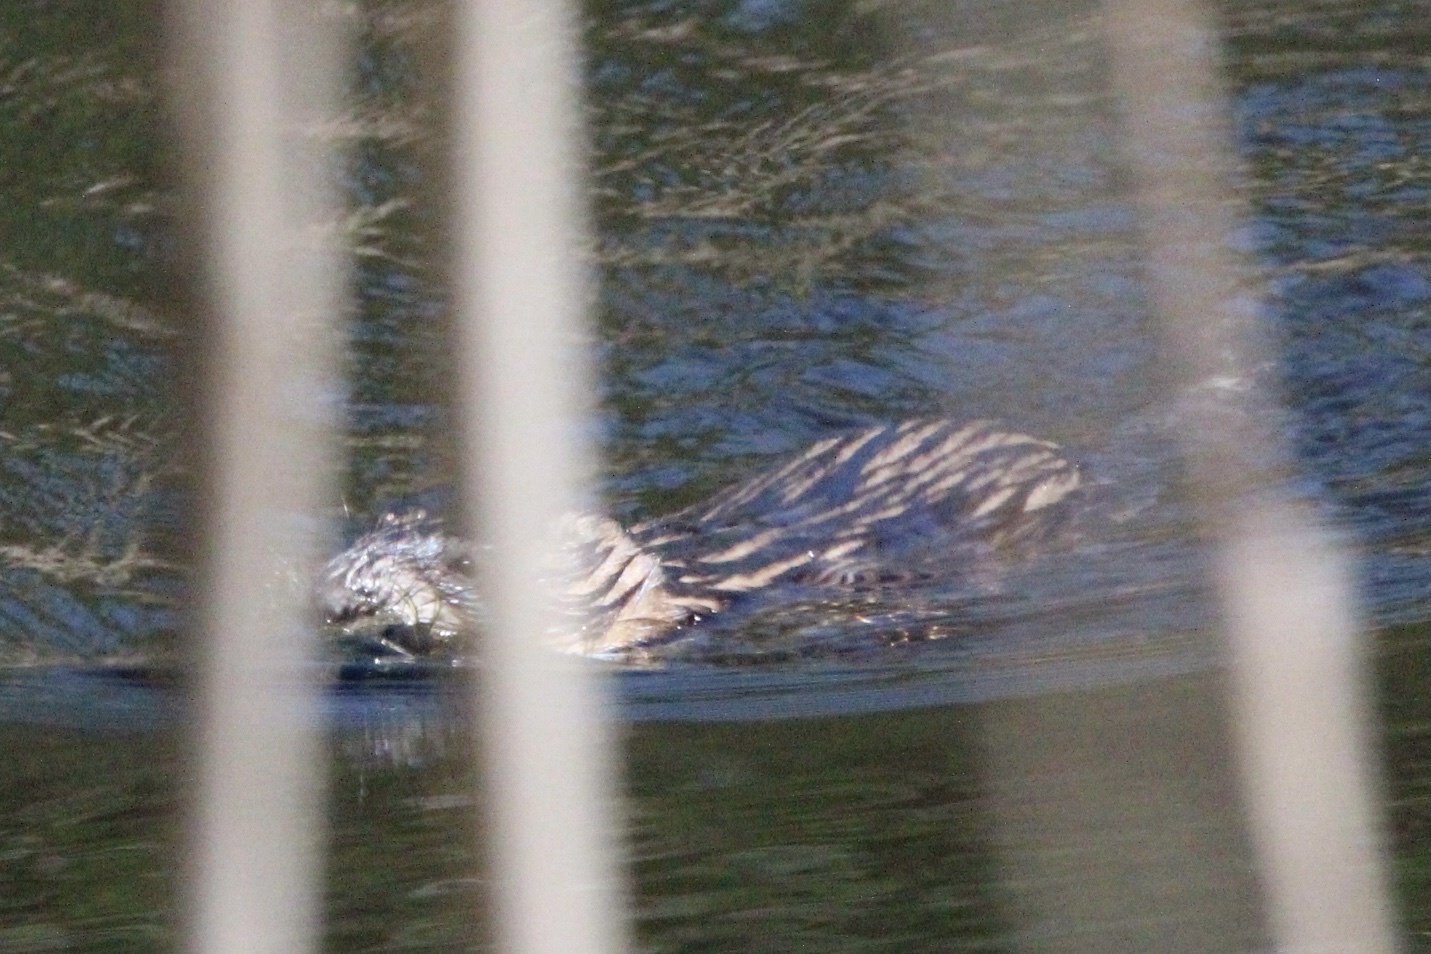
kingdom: Animalia
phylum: Chordata
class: Mammalia
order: Rodentia
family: Cricetidae
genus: Ondatra
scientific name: Ondatra zibethicus
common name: Muskrat
